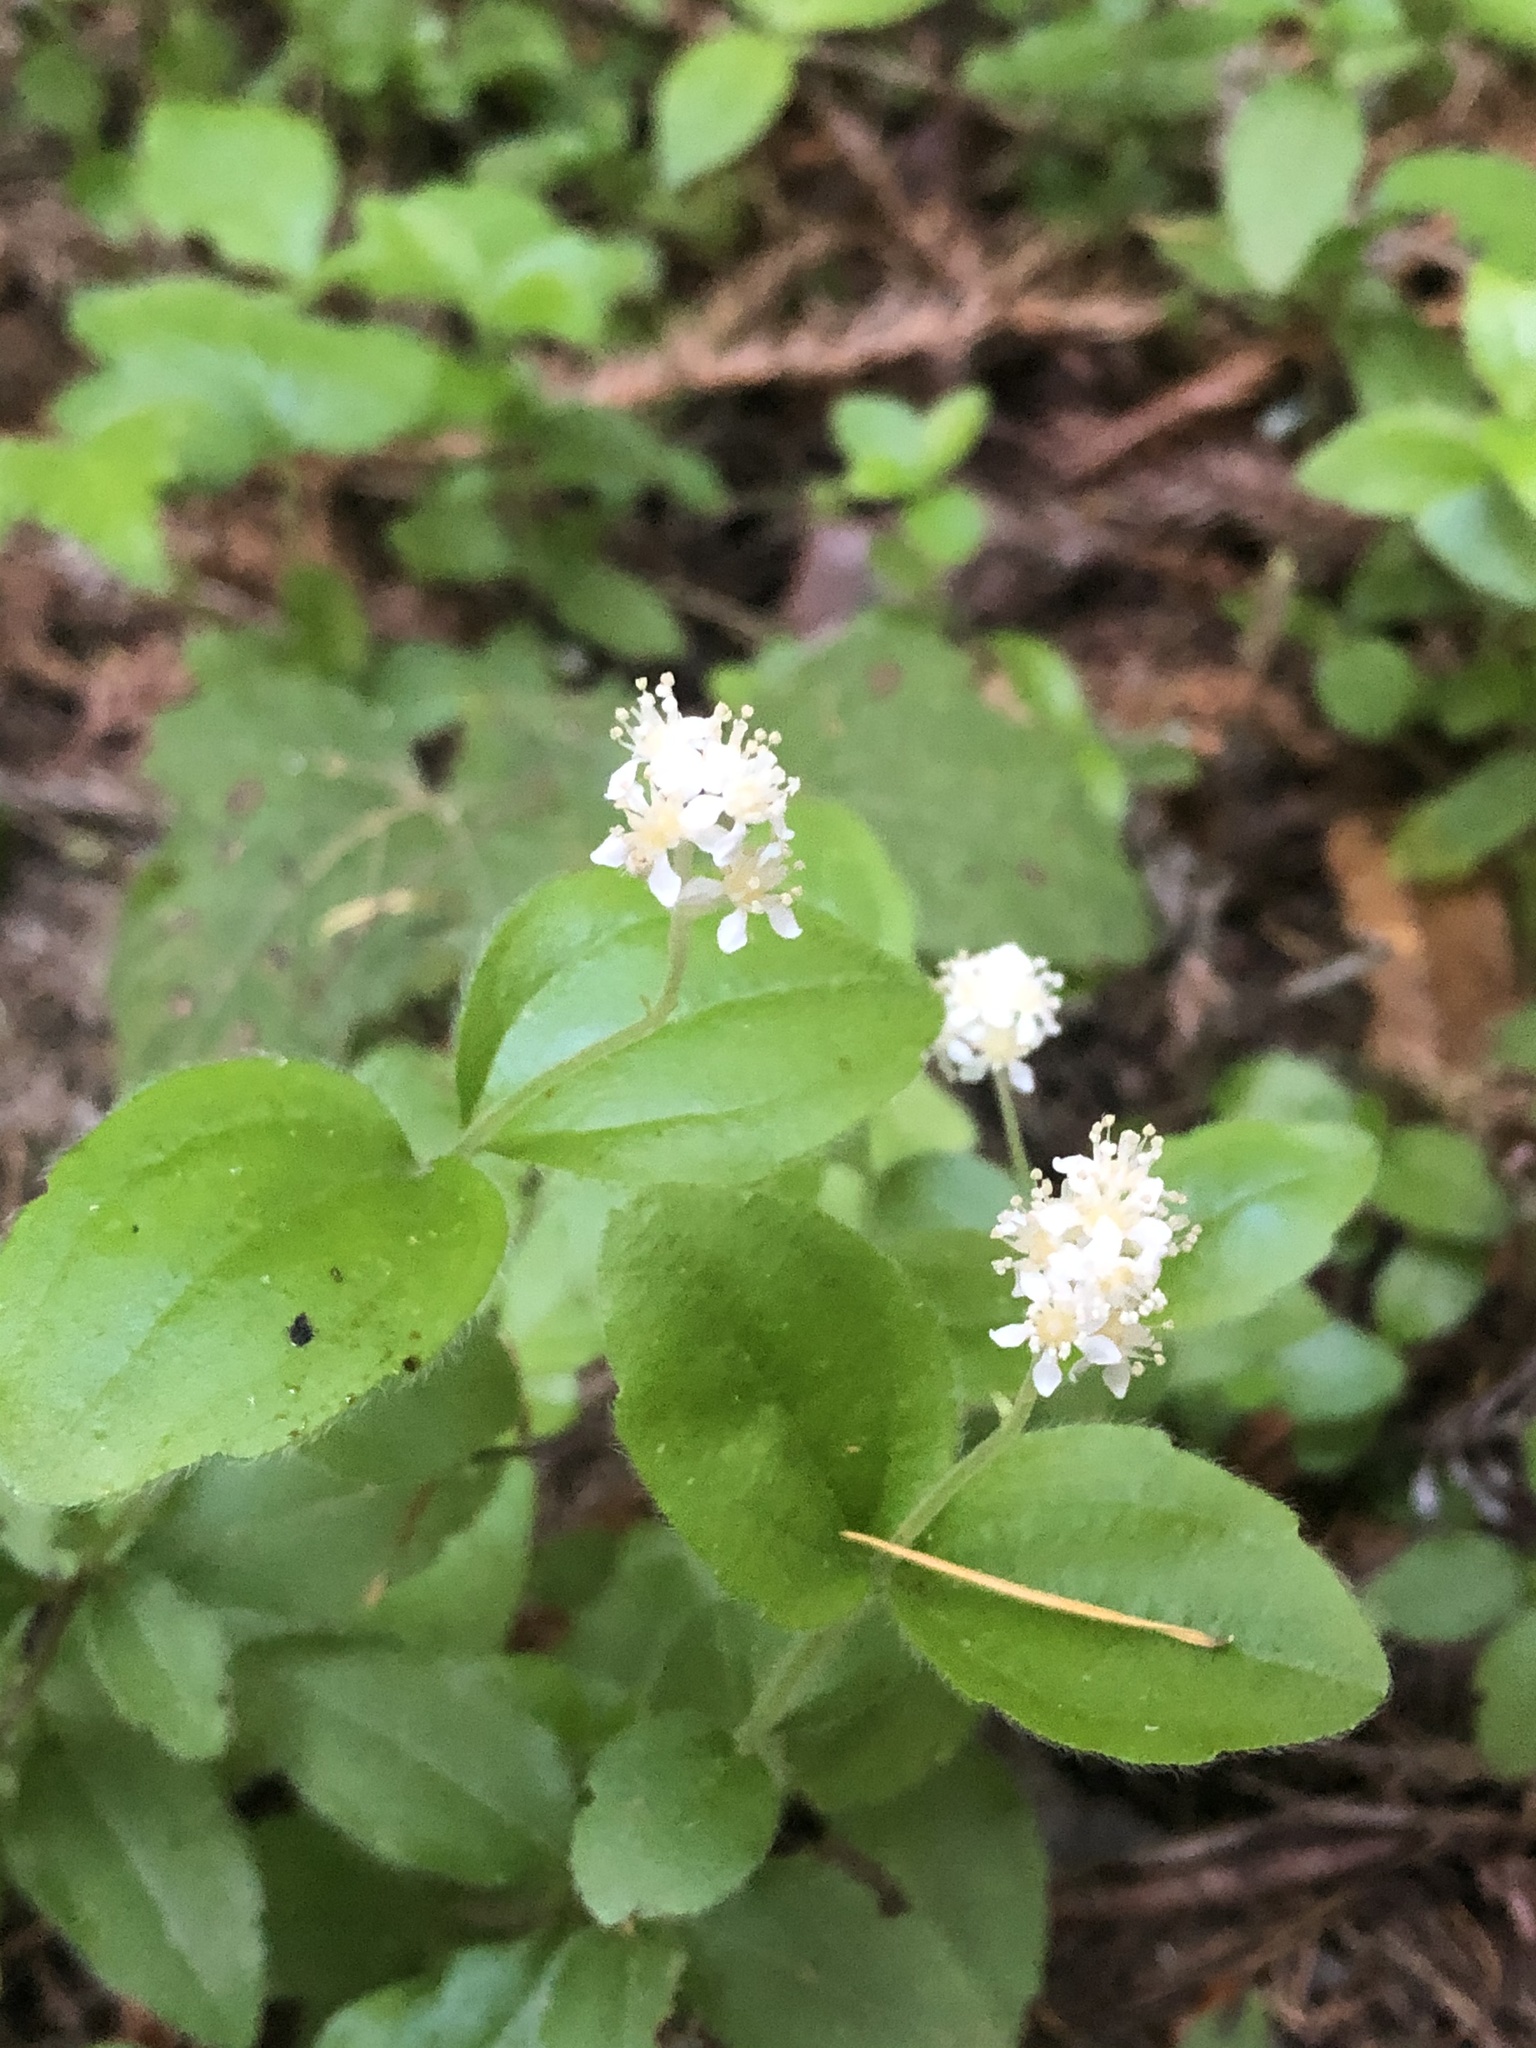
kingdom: Plantae
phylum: Tracheophyta
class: Magnoliopsida
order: Cornales
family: Hydrangeaceae
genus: Whipplea
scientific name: Whipplea modesta
